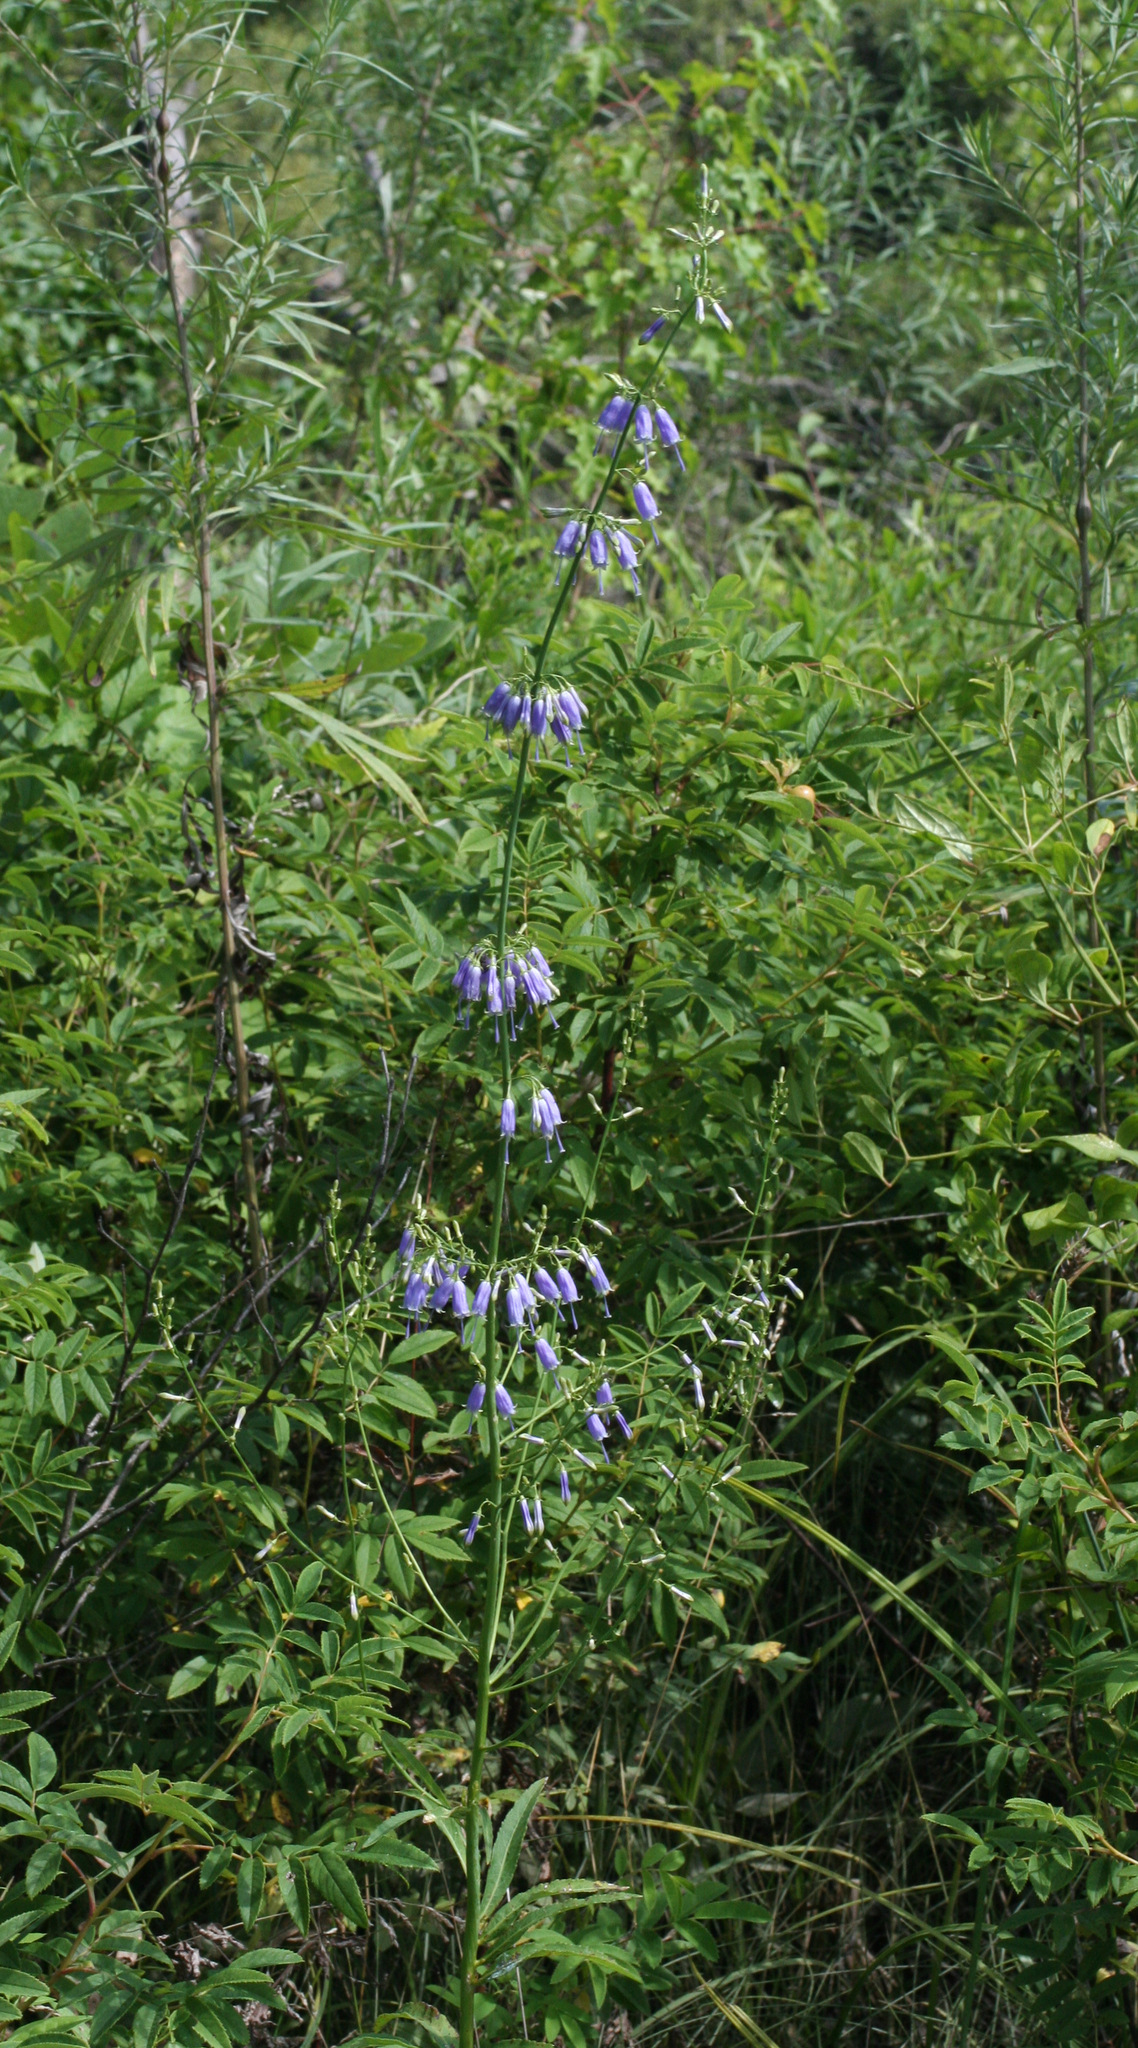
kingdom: Plantae
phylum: Tracheophyta
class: Magnoliopsida
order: Asterales
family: Campanulaceae
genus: Adenophora
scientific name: Adenophora triphylla
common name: Giant-bellflower
